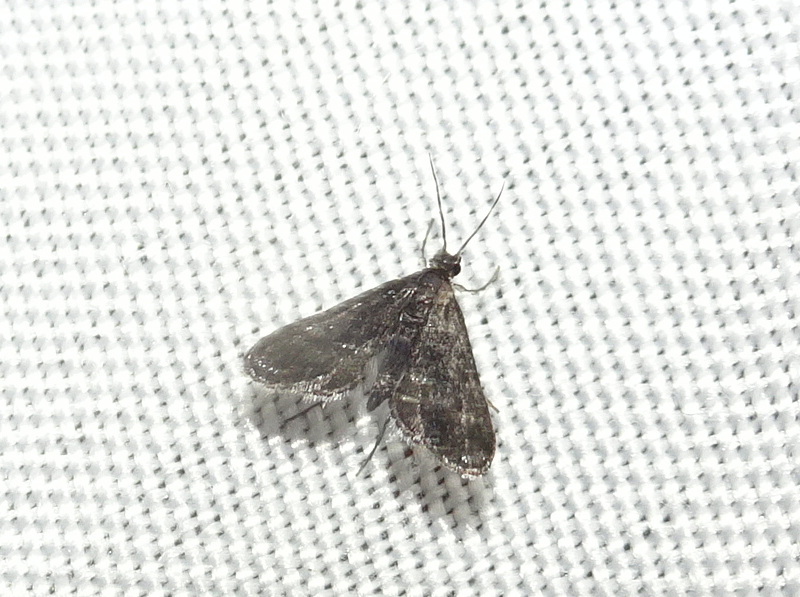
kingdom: Animalia
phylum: Arthropoda
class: Insecta
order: Lepidoptera
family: Crambidae
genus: Elophila
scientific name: Elophila tinealis
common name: Black duckweed moth
